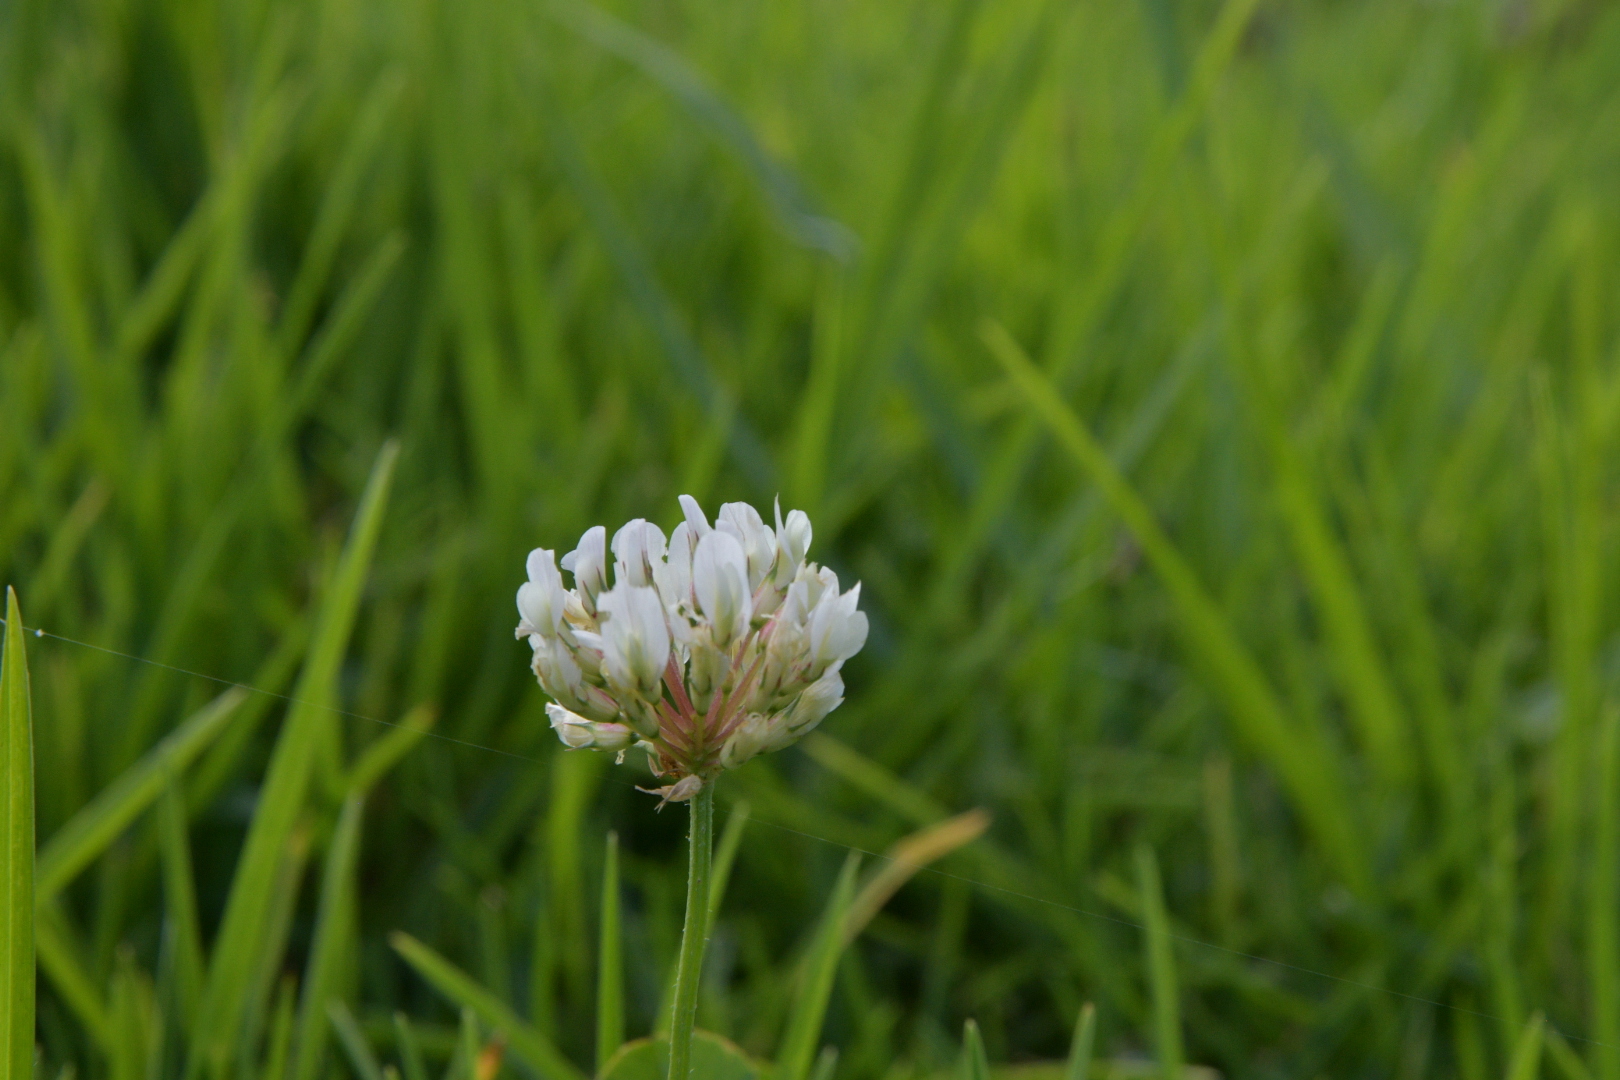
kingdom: Plantae
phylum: Tracheophyta
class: Magnoliopsida
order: Fabales
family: Fabaceae
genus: Trifolium
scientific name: Trifolium repens
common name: White clover
